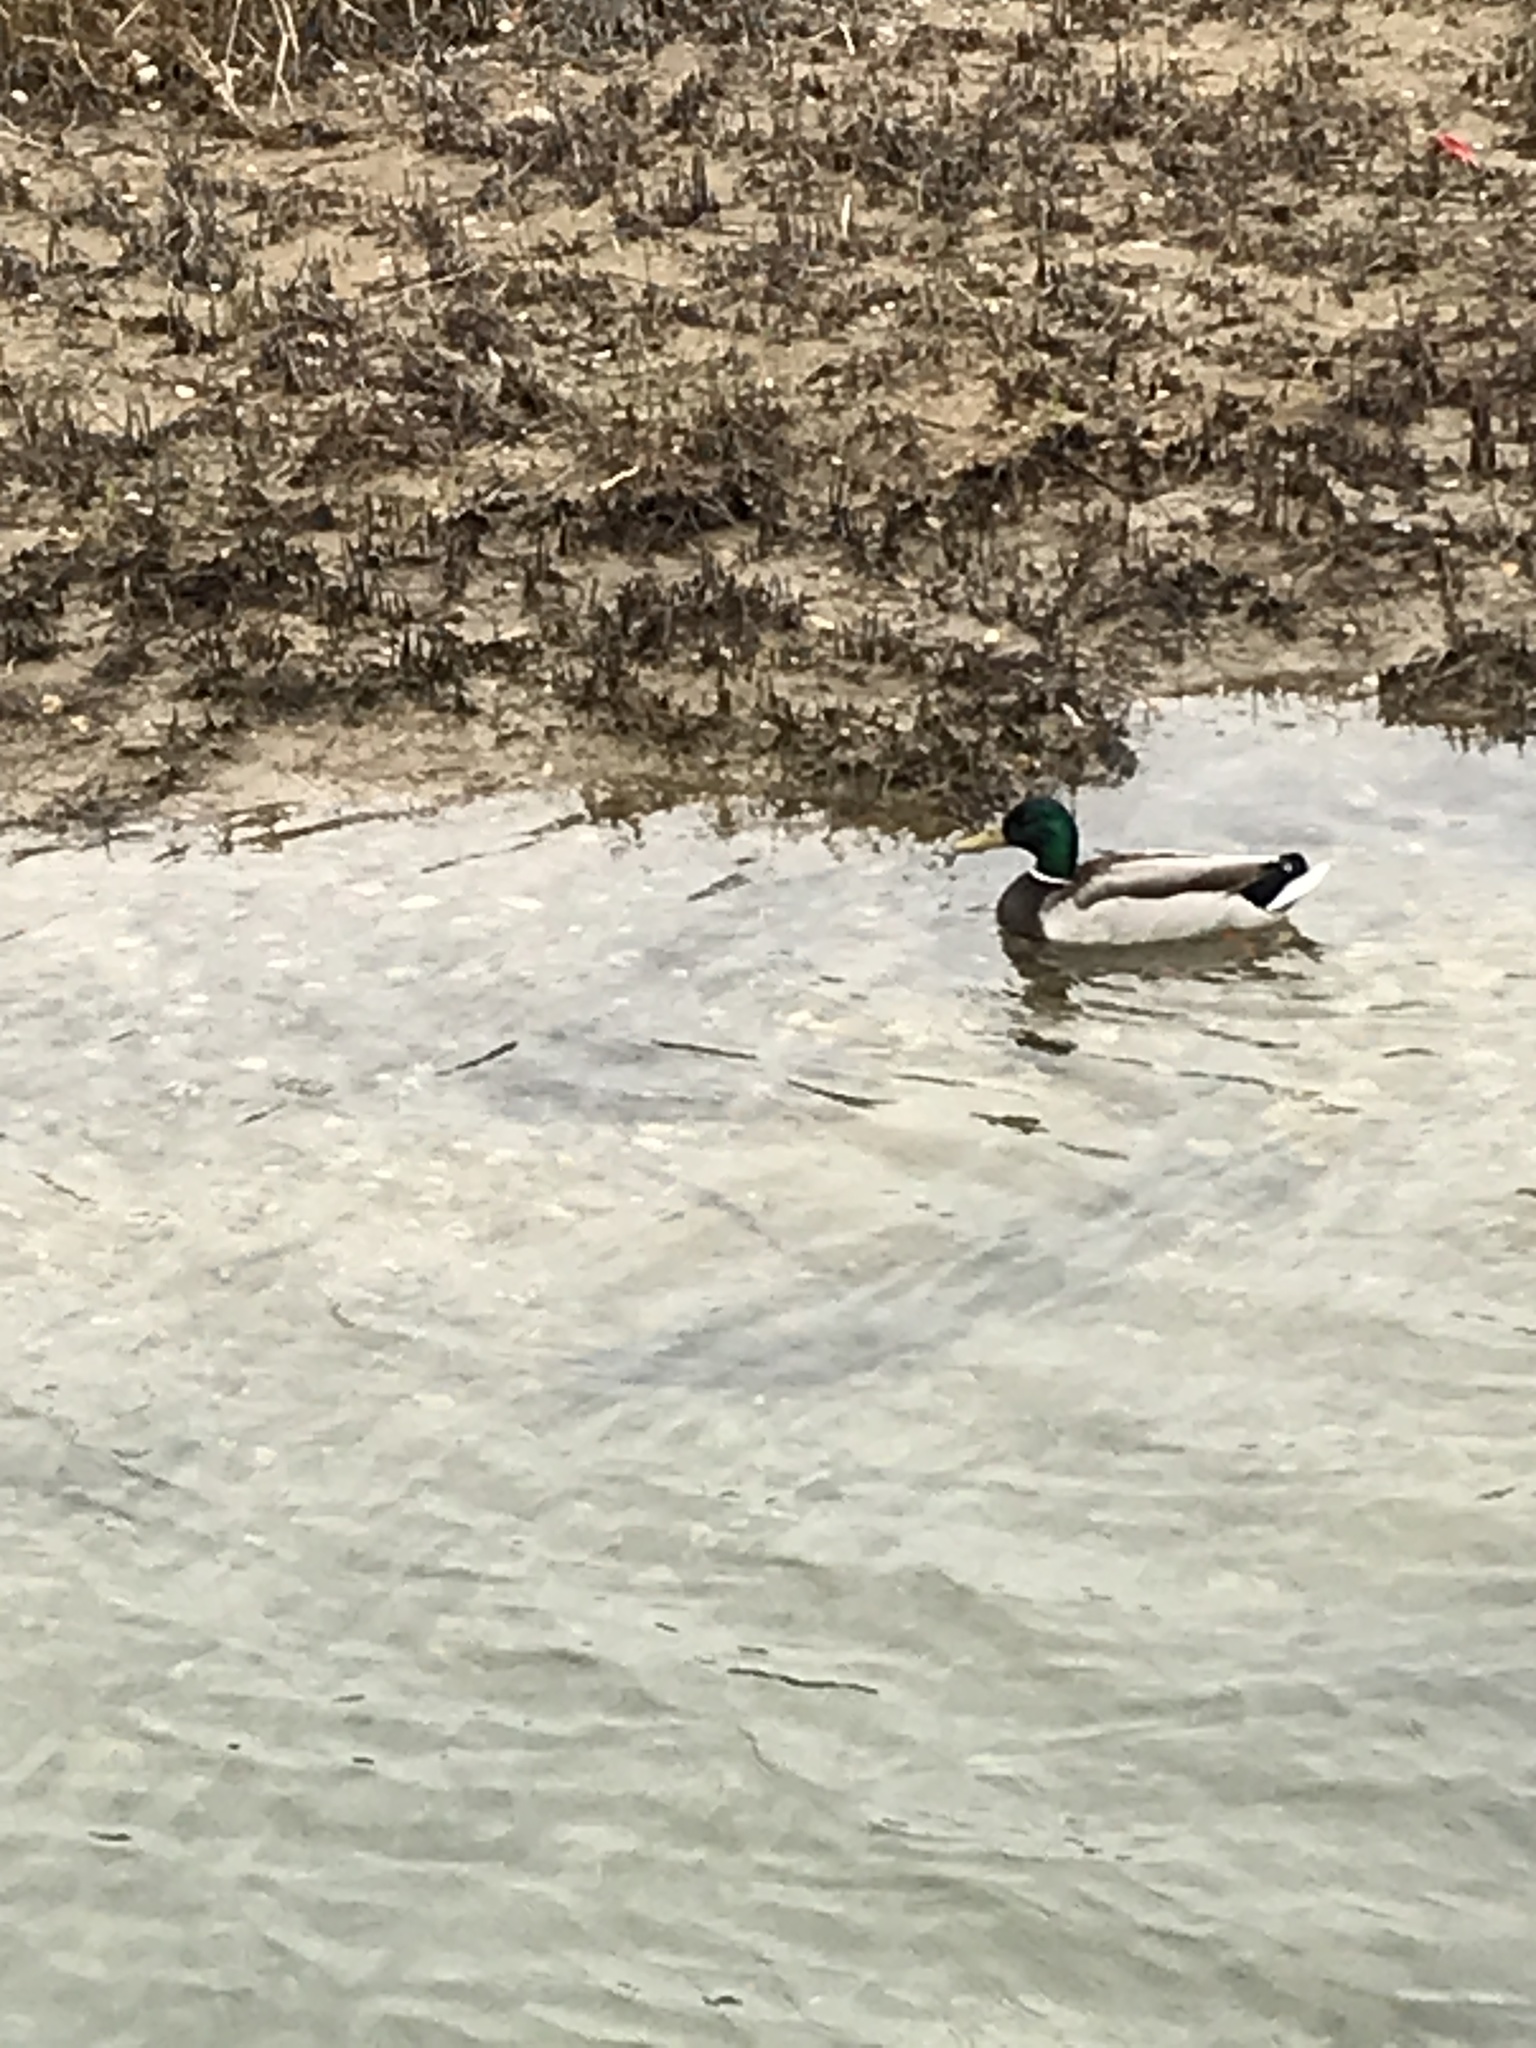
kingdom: Animalia
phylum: Chordata
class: Aves
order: Anseriformes
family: Anatidae
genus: Anas
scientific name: Anas platyrhynchos
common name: Mallard
